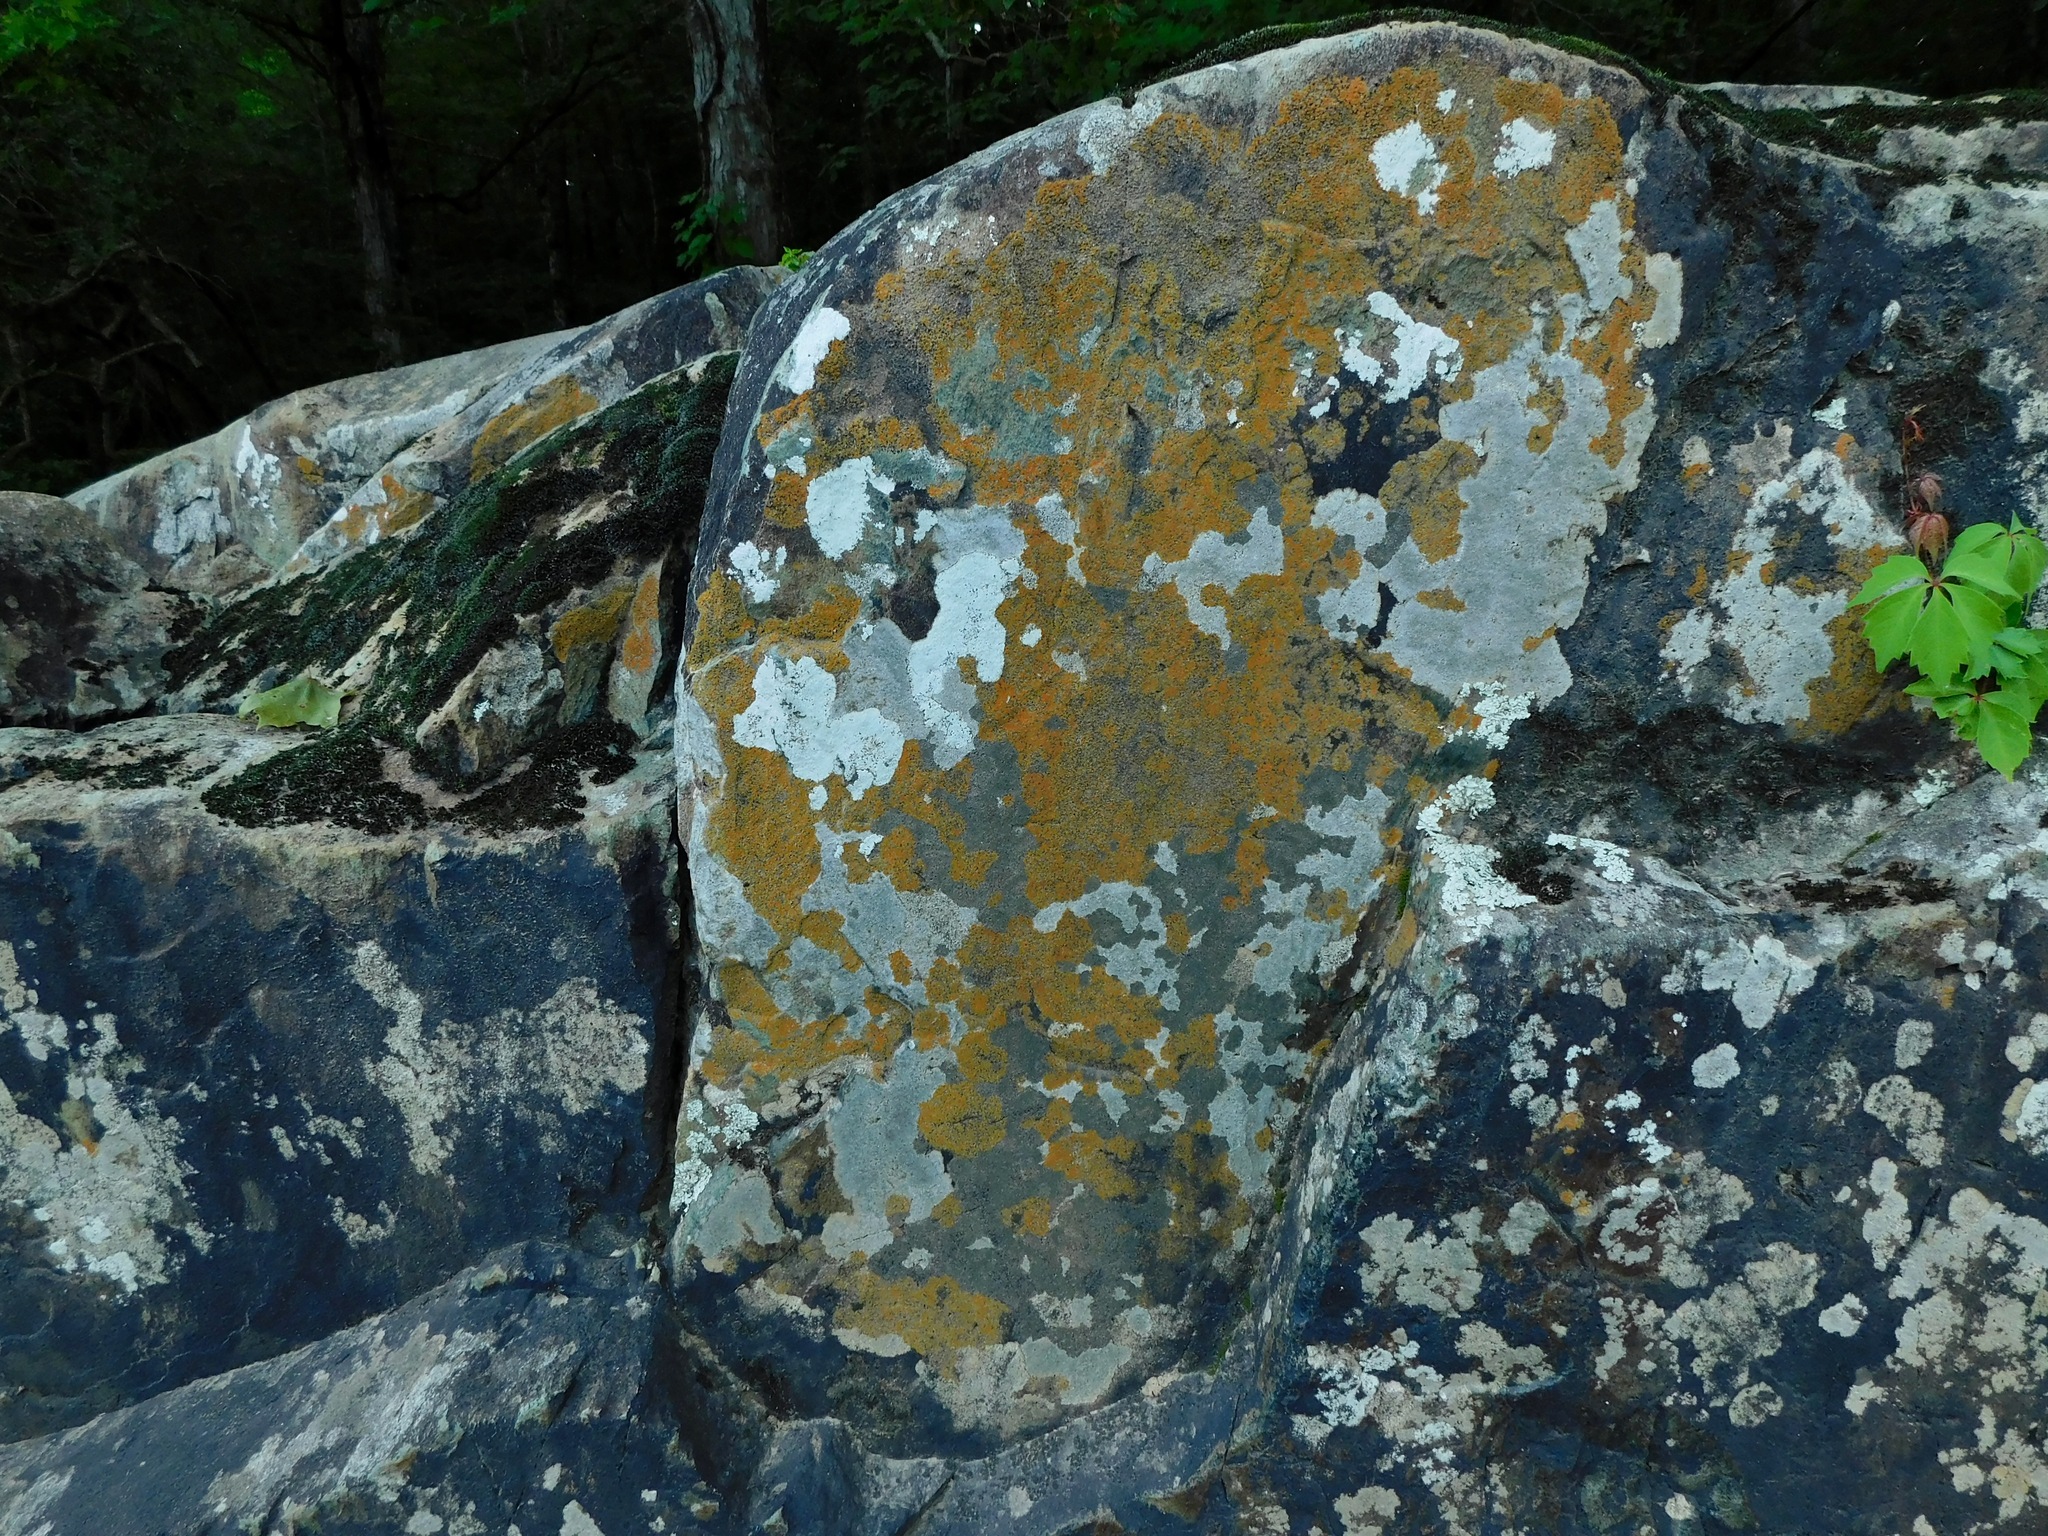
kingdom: Fungi
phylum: Ascomycota
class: Lecanoromycetes
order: Teloschistales
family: Teloschistaceae
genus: Squamulea
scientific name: Squamulea subsoluta
